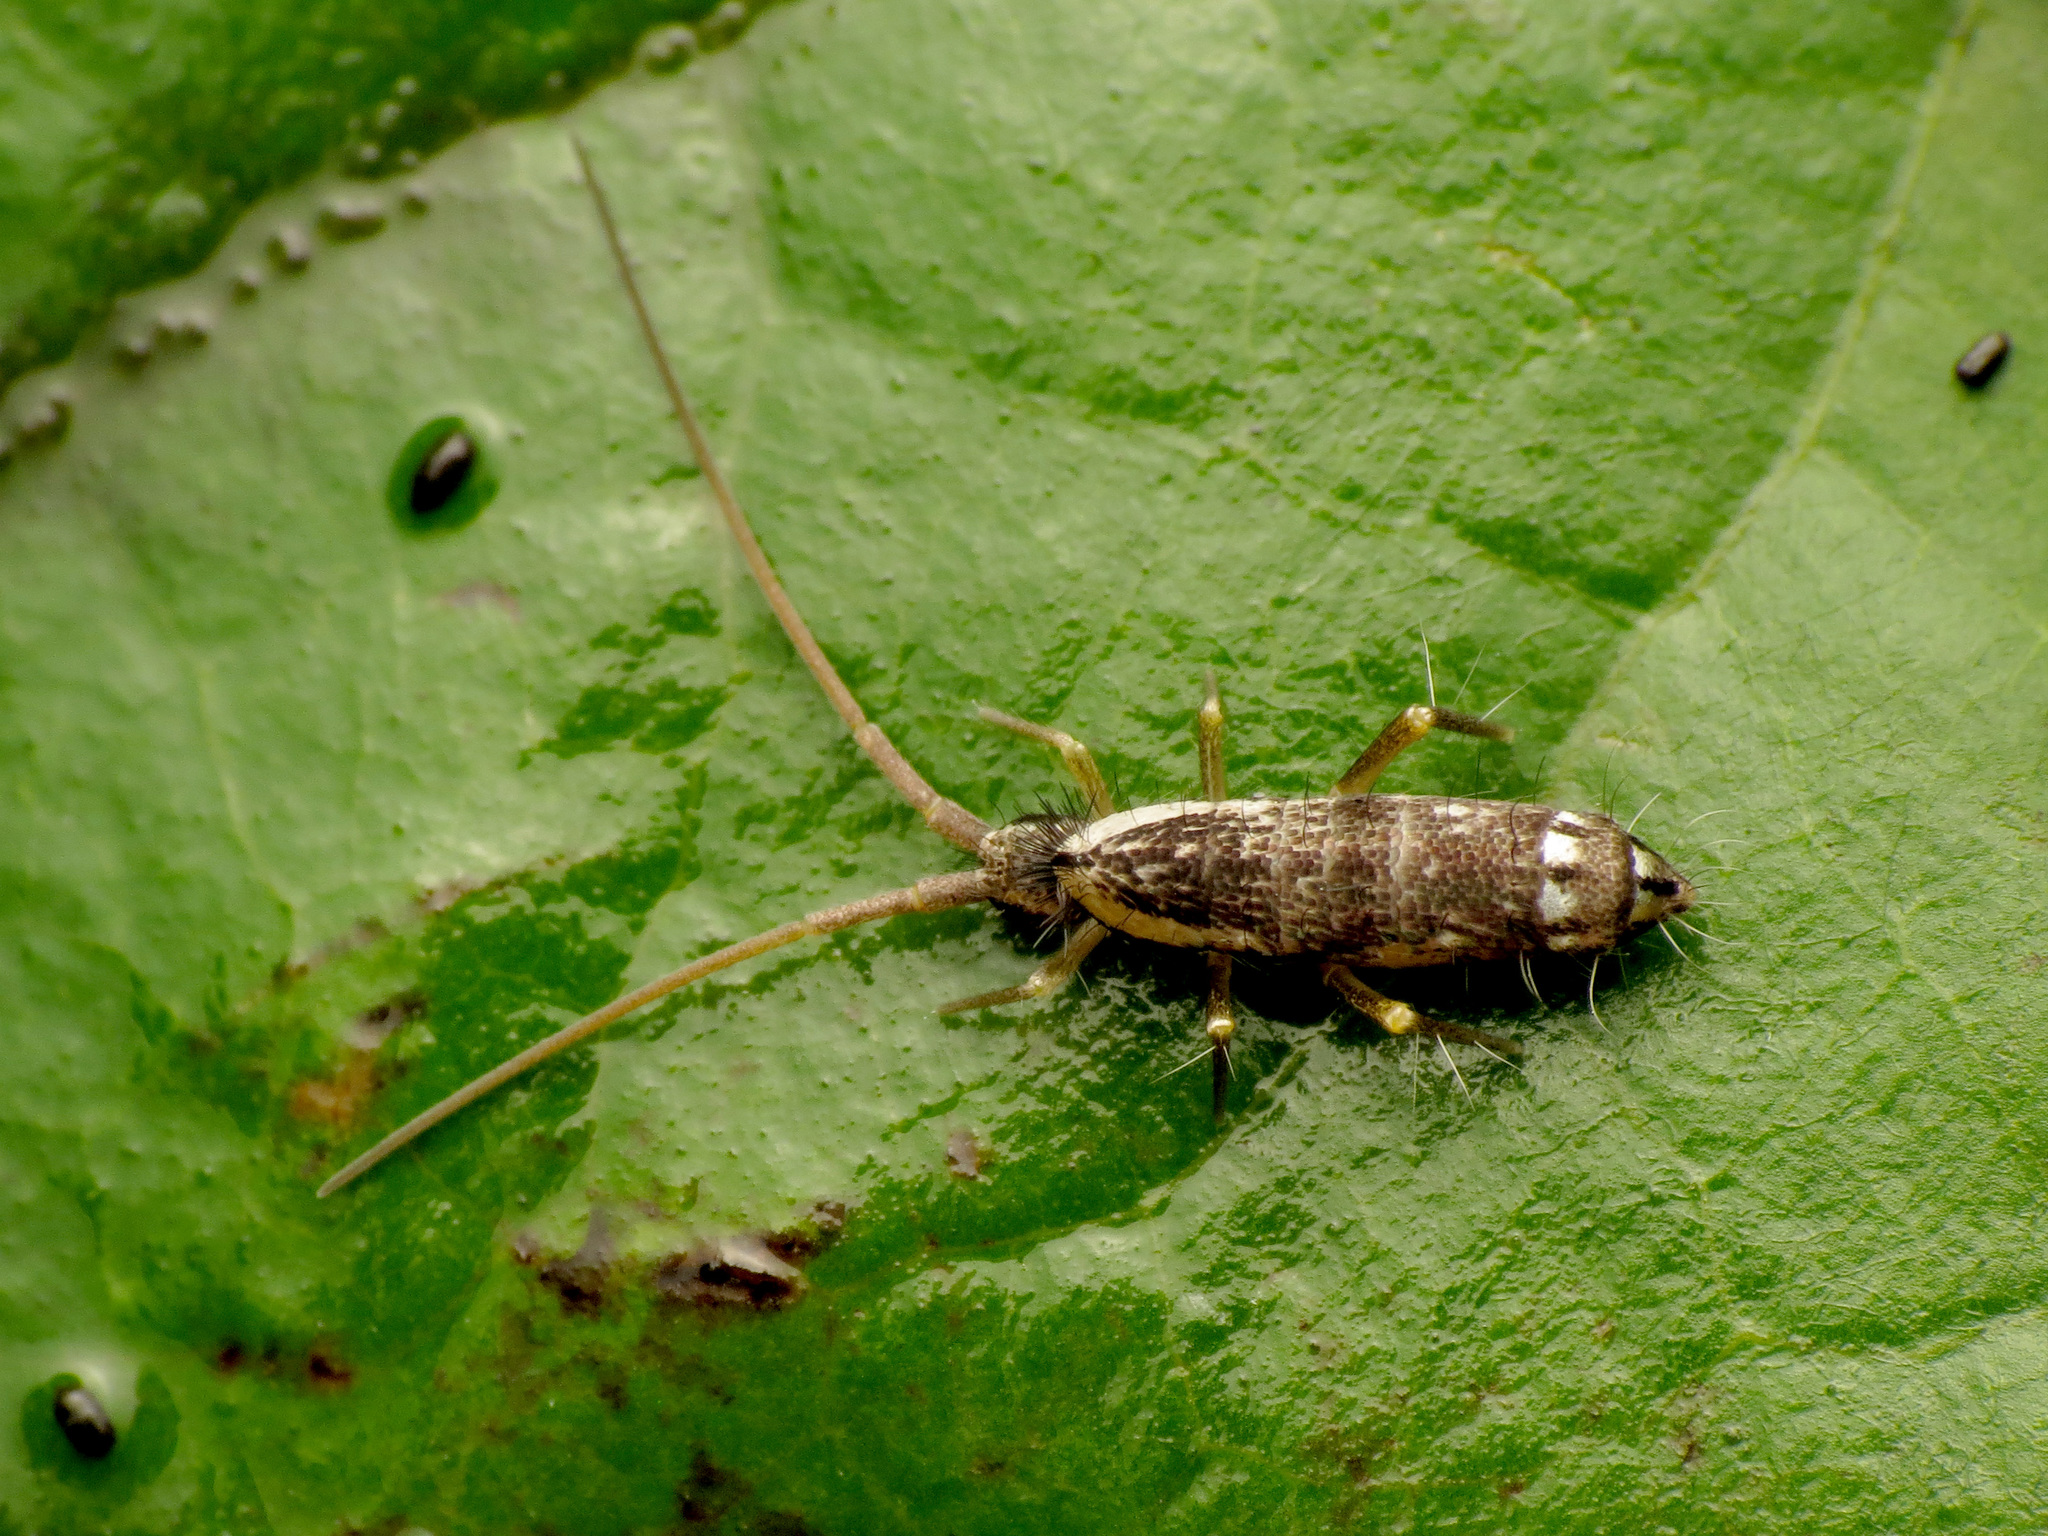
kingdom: Animalia
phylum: Arthropoda
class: Collembola
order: Entomobryomorpha
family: Tomoceridae
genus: Pogonognathellus
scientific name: Pogonognathellus elongatus
